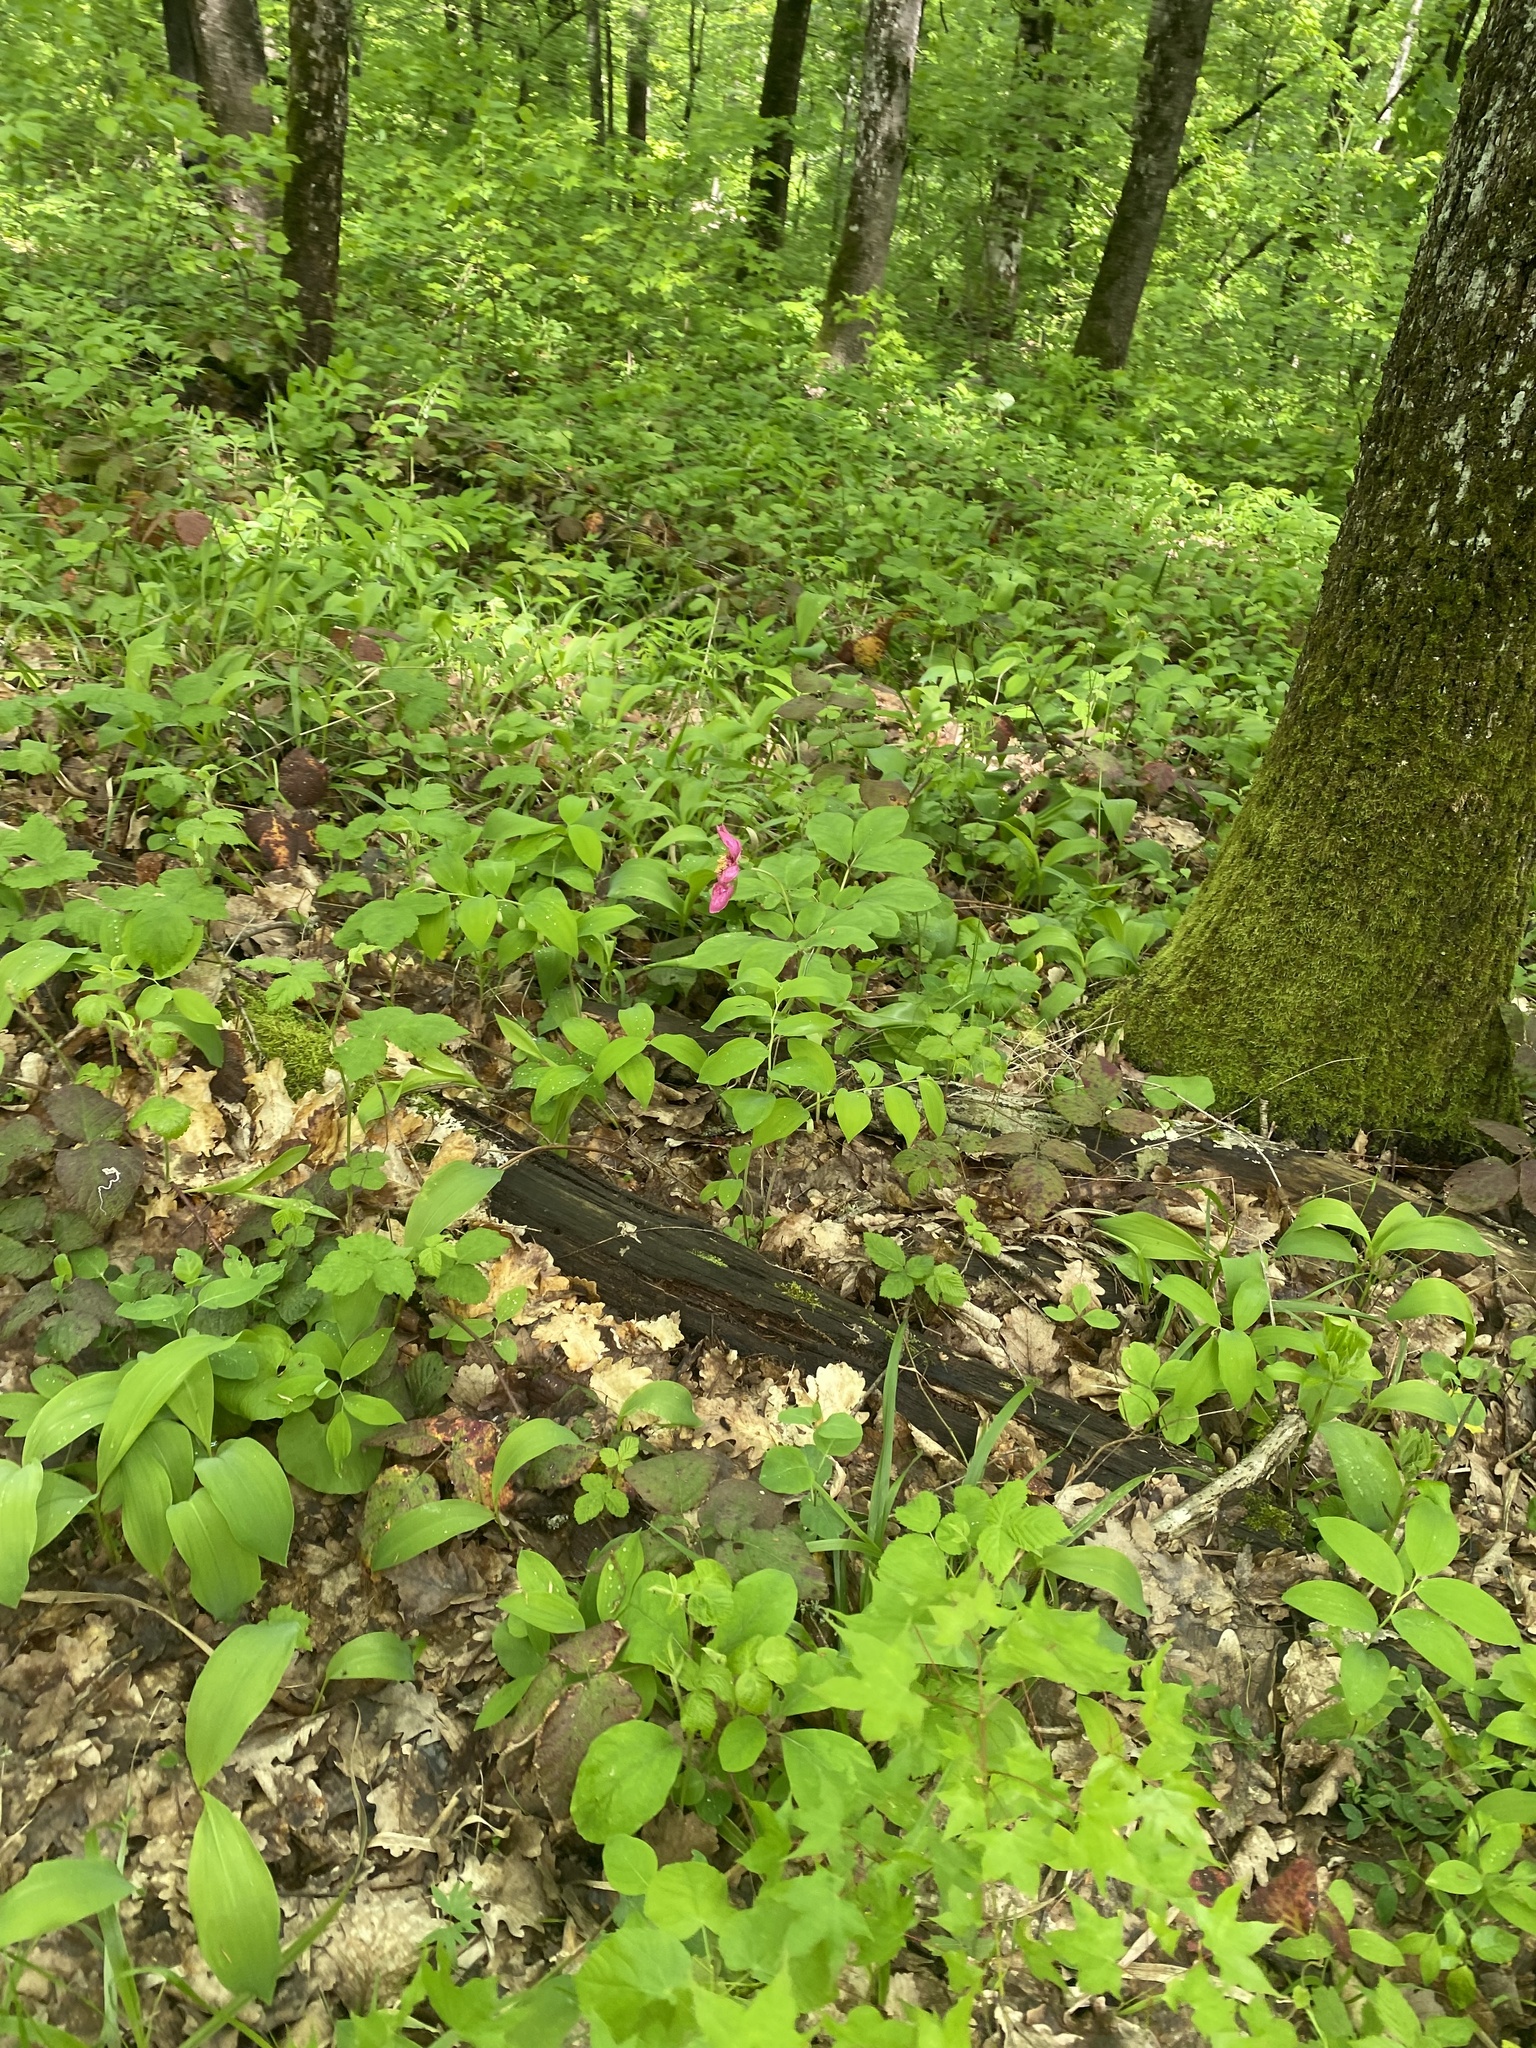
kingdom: Plantae
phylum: Tracheophyta
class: Magnoliopsida
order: Saxifragales
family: Paeoniaceae
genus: Paeonia
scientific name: Paeonia caucasica
